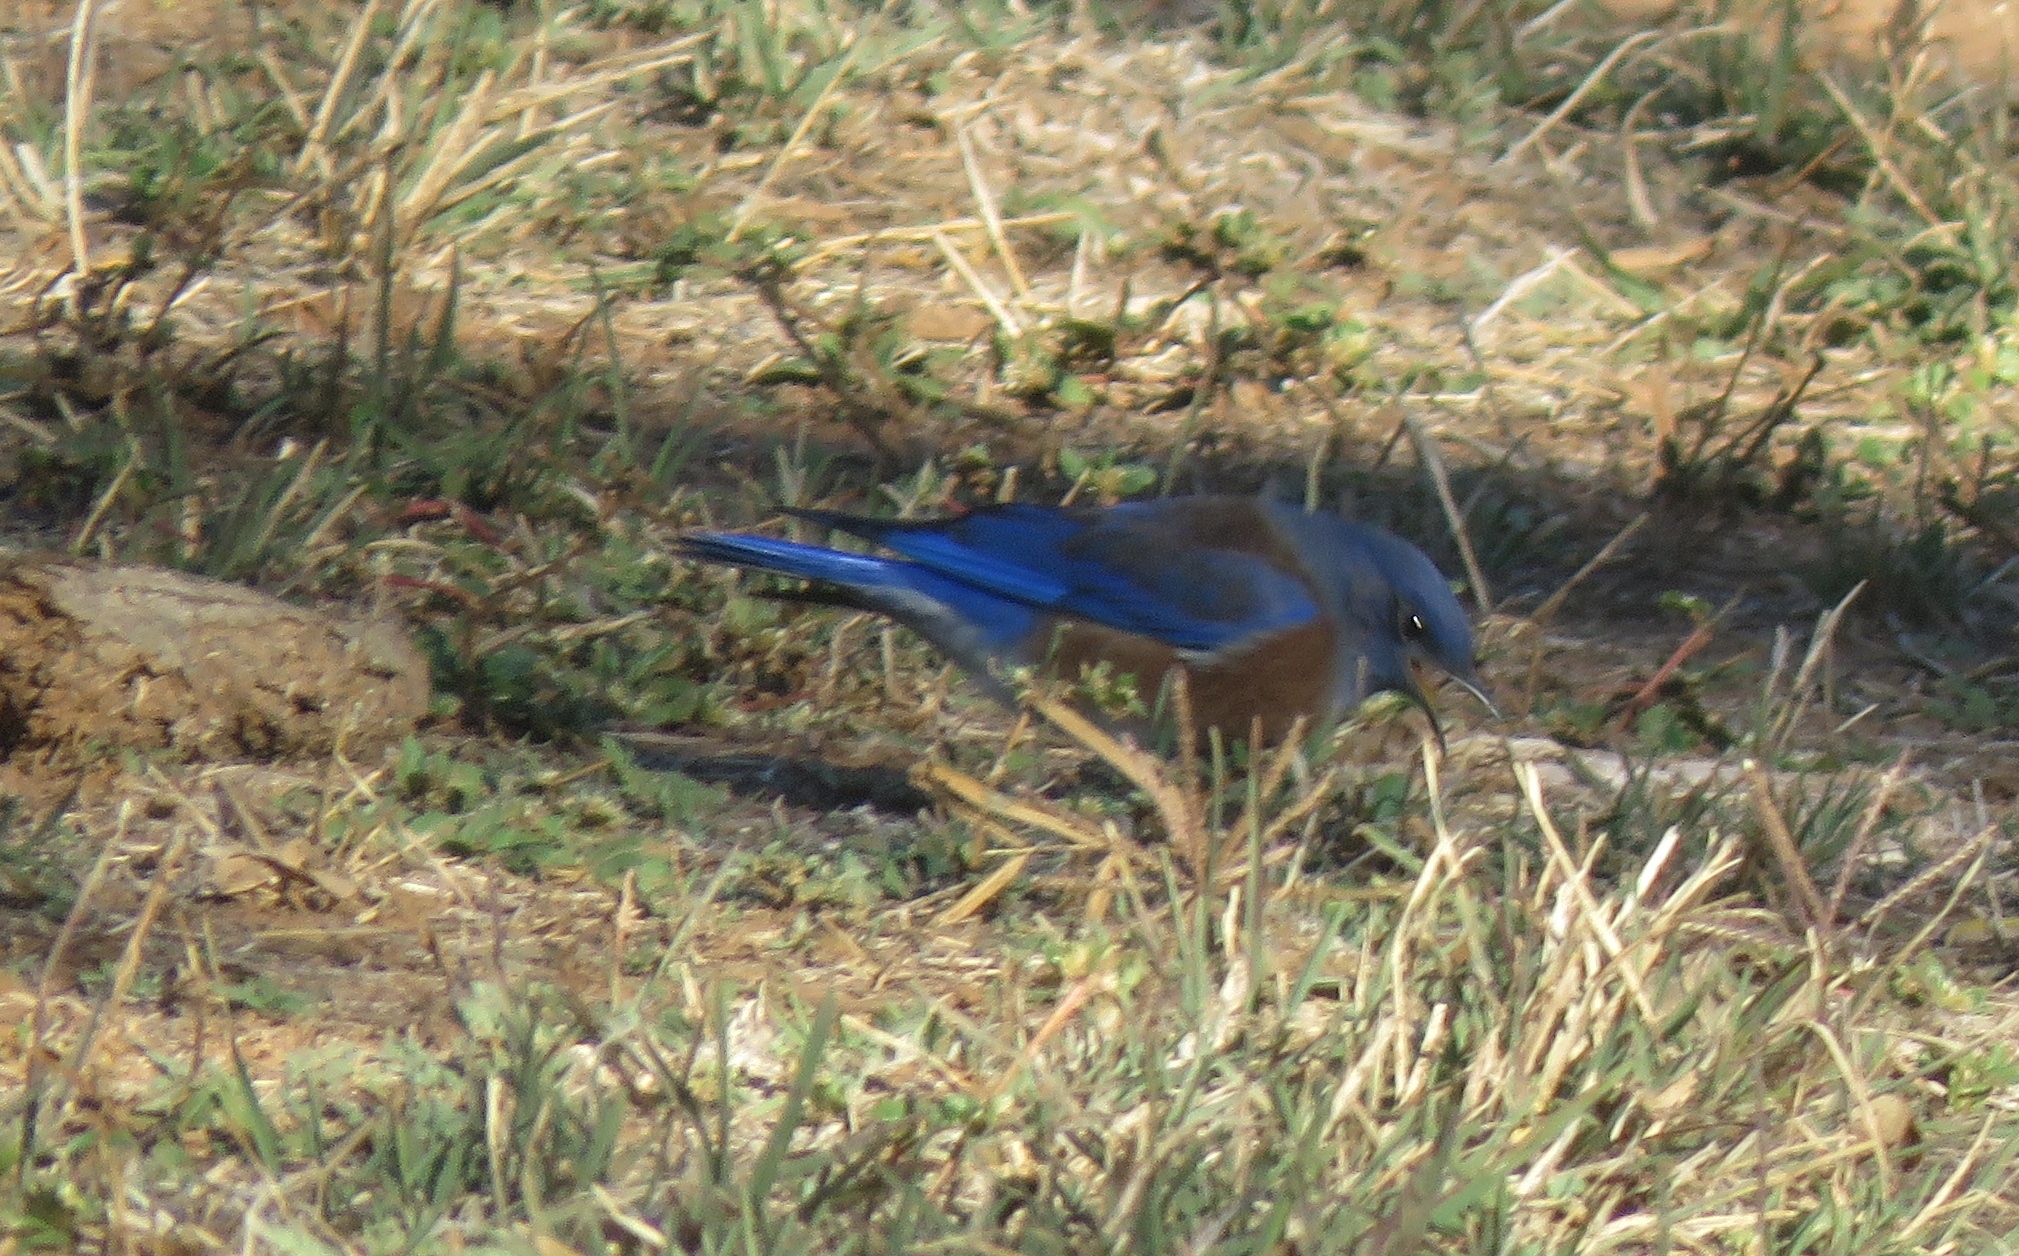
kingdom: Animalia
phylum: Chordata
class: Aves
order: Passeriformes
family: Turdidae
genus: Sialia
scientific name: Sialia mexicana
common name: Western bluebird
